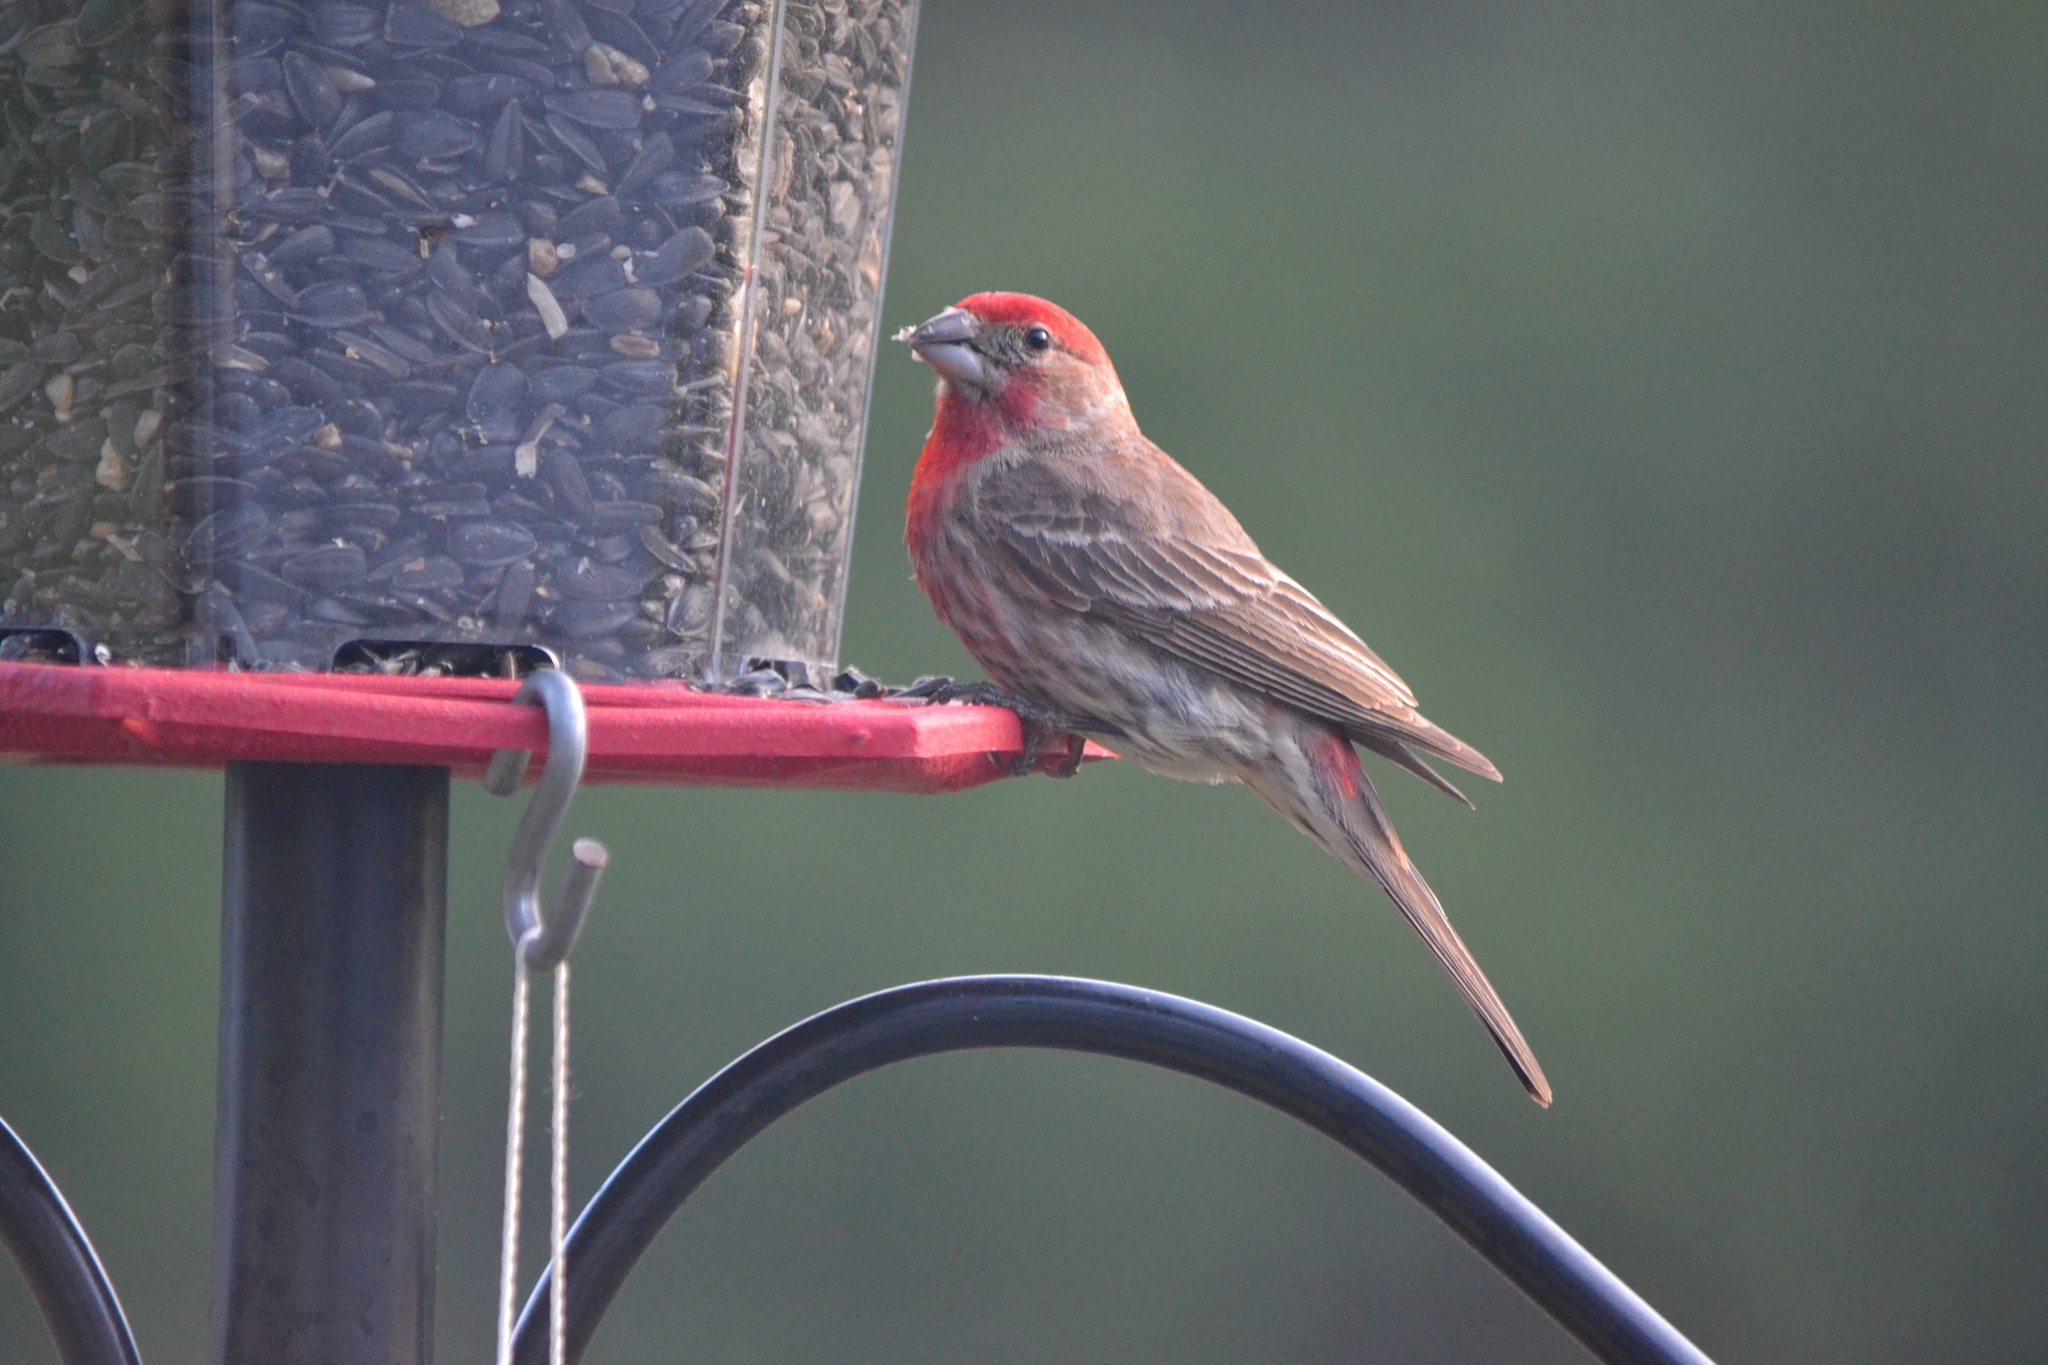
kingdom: Animalia
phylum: Chordata
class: Aves
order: Passeriformes
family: Fringillidae
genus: Haemorhous
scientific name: Haemorhous mexicanus
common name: House finch
